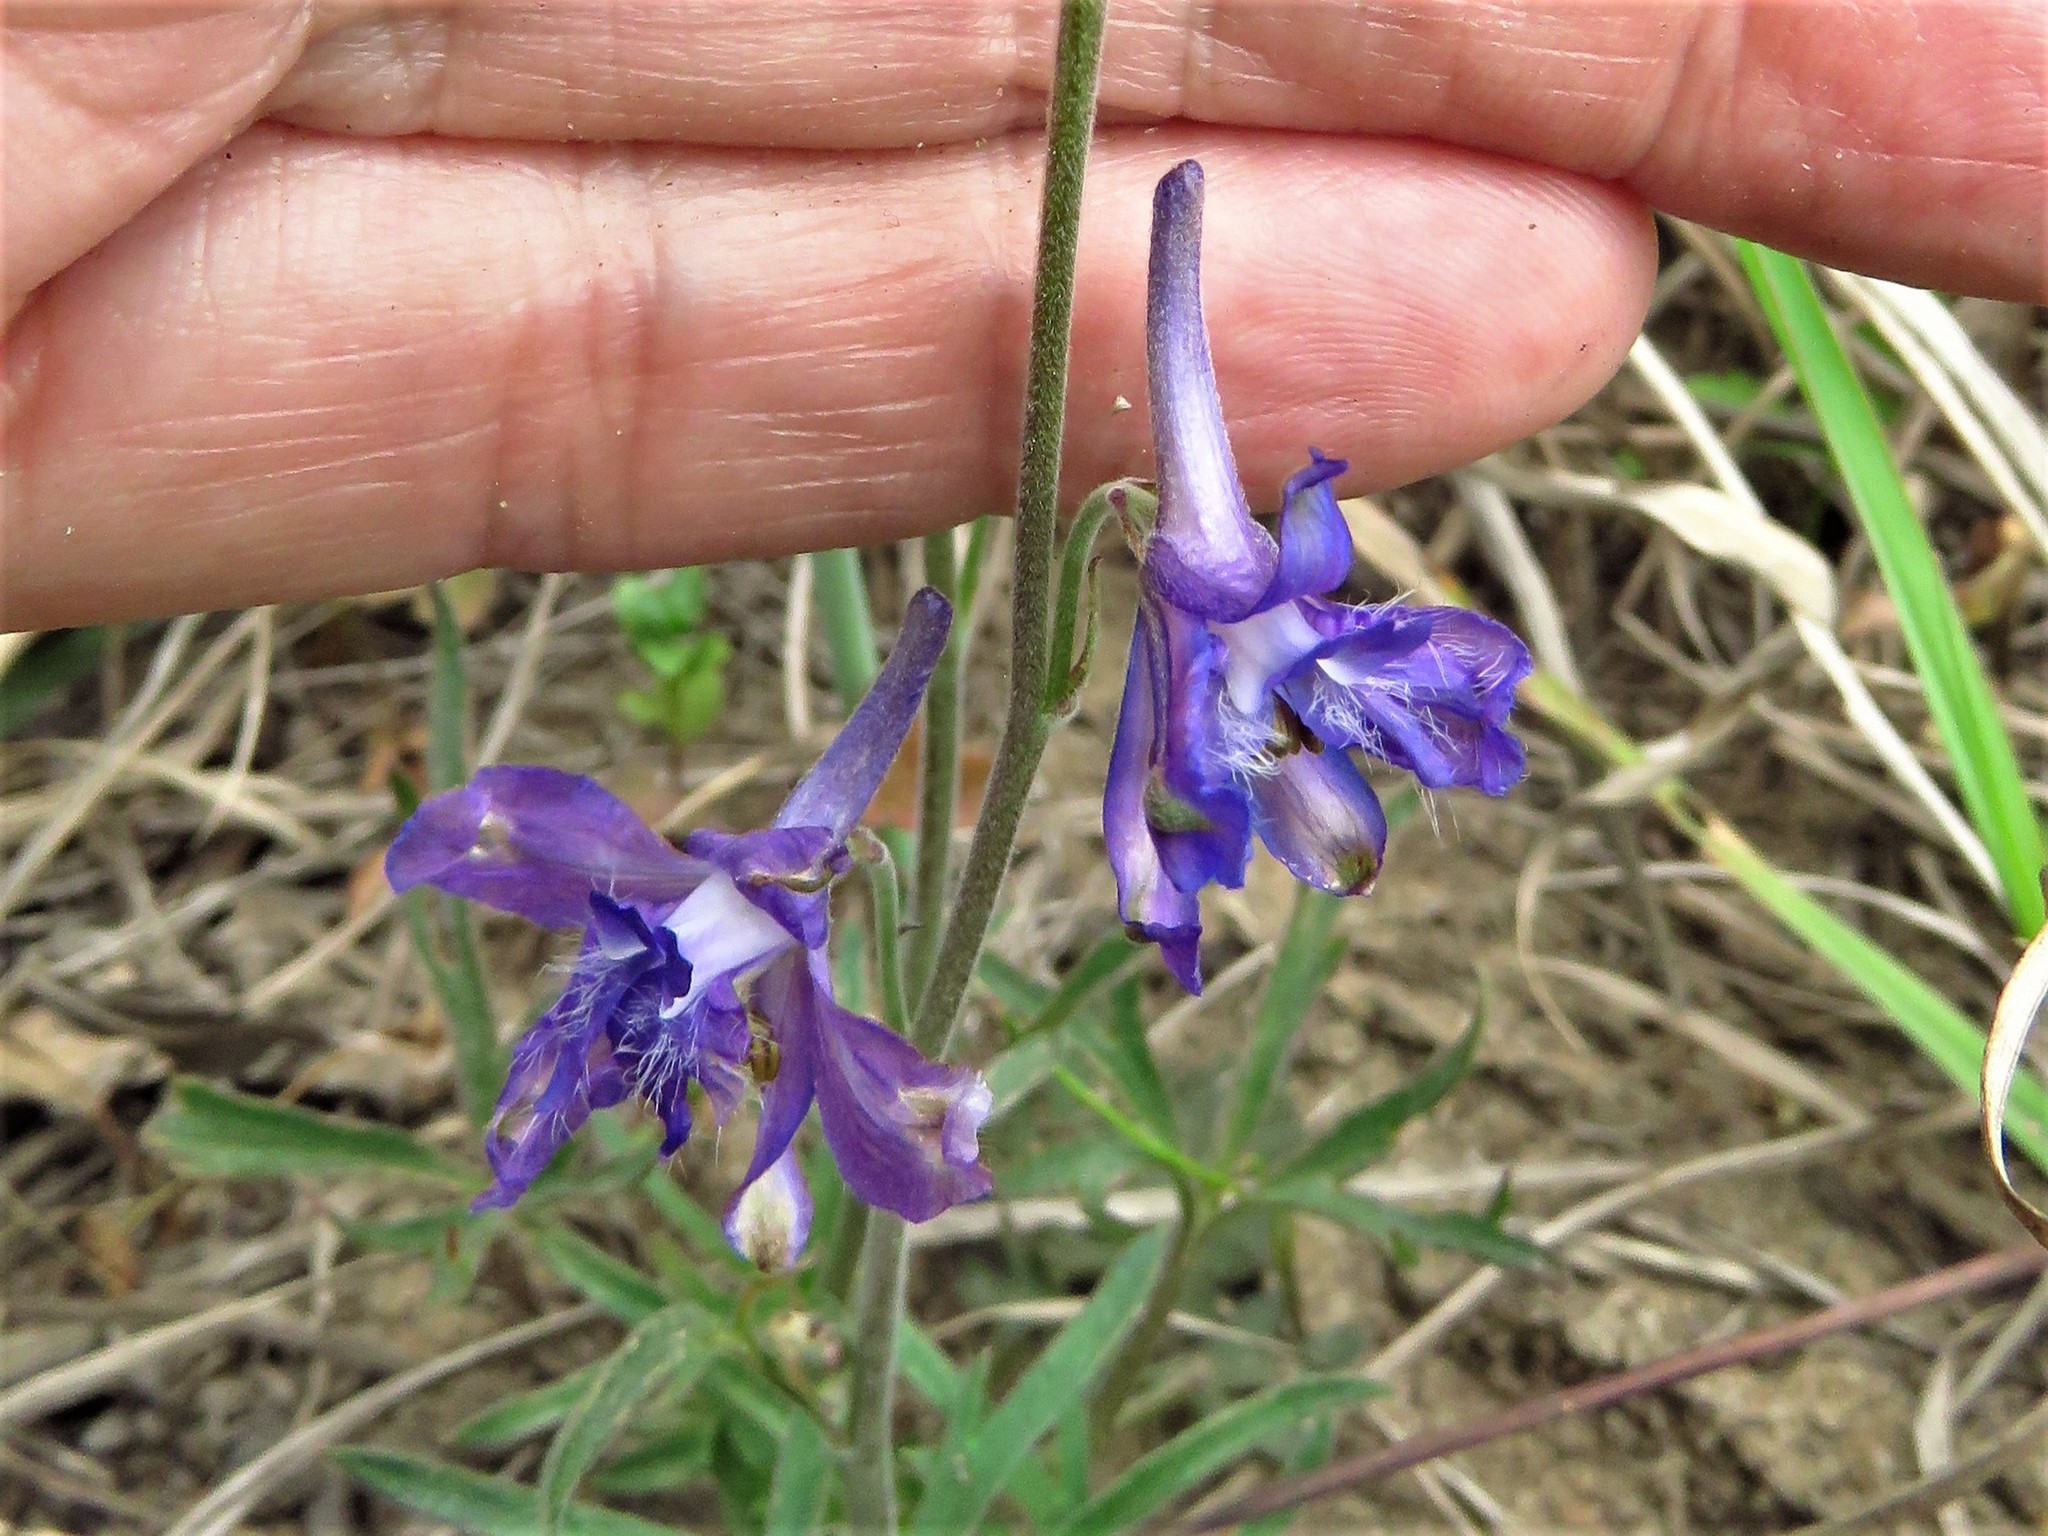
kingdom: Plantae
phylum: Tracheophyta
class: Magnoliopsida
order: Ranunculales
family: Ranunculaceae
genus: Delphinium
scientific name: Delphinium carolinianum
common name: Carolina larkspur
